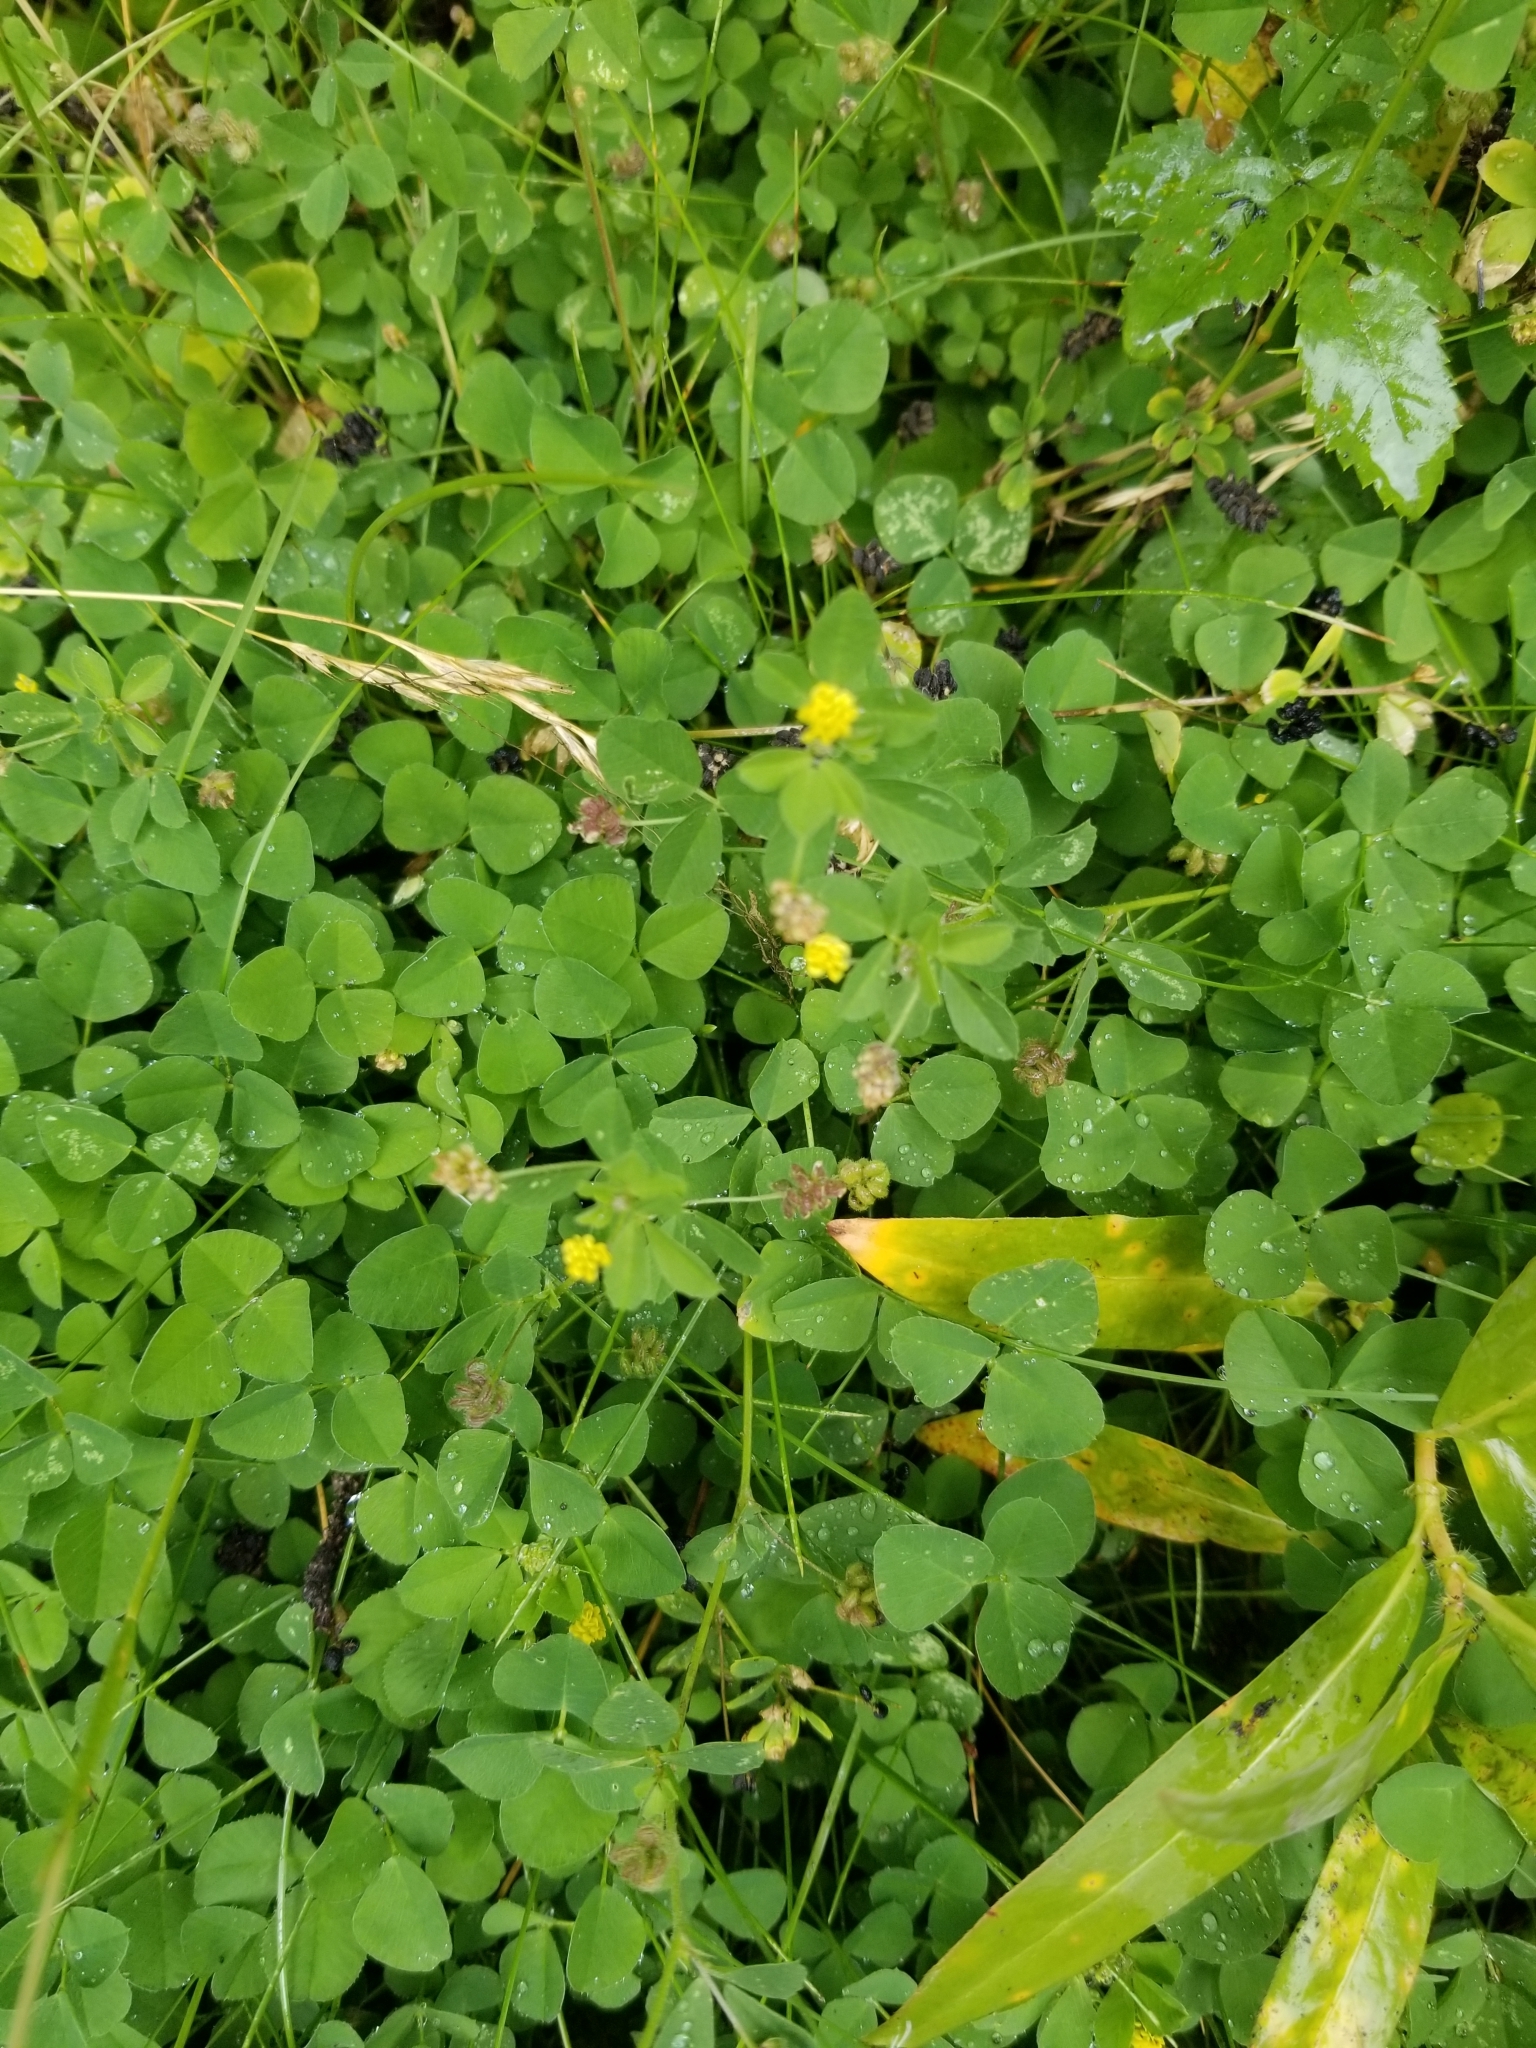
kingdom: Plantae
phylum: Tracheophyta
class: Magnoliopsida
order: Fabales
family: Fabaceae
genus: Medicago
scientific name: Medicago lupulina
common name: Black medick
